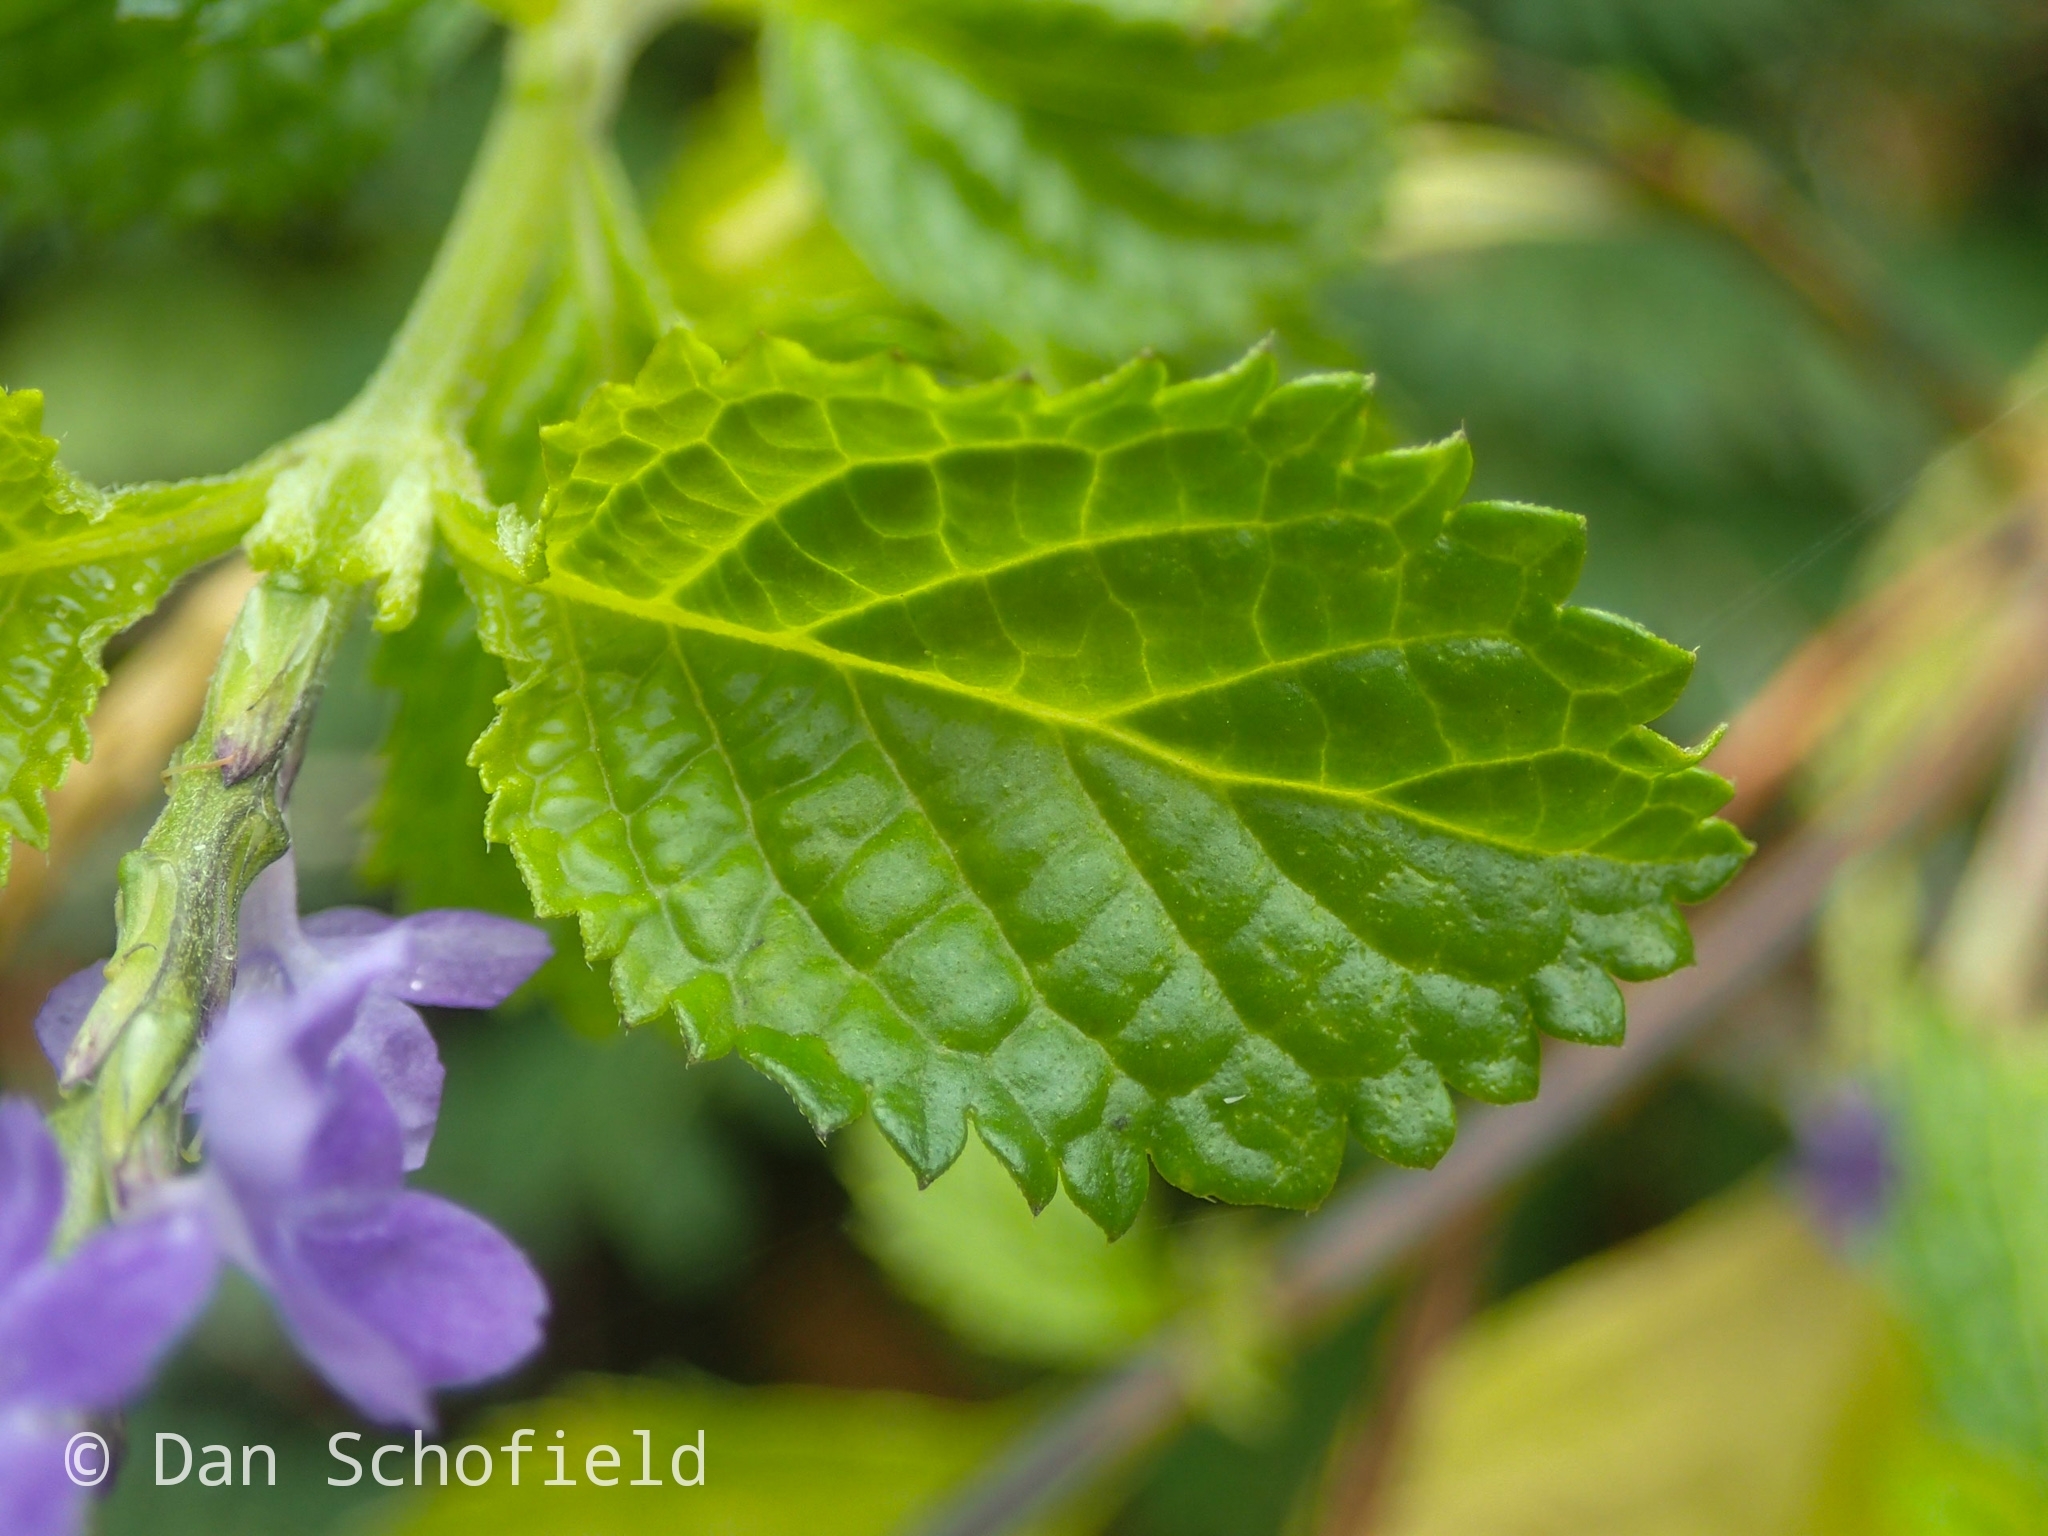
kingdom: Plantae
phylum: Tracheophyta
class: Magnoliopsida
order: Lamiales
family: Verbenaceae
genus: Stachytarpheta
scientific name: Stachytarpheta jamaicensis
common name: Light-blue snakeweed
